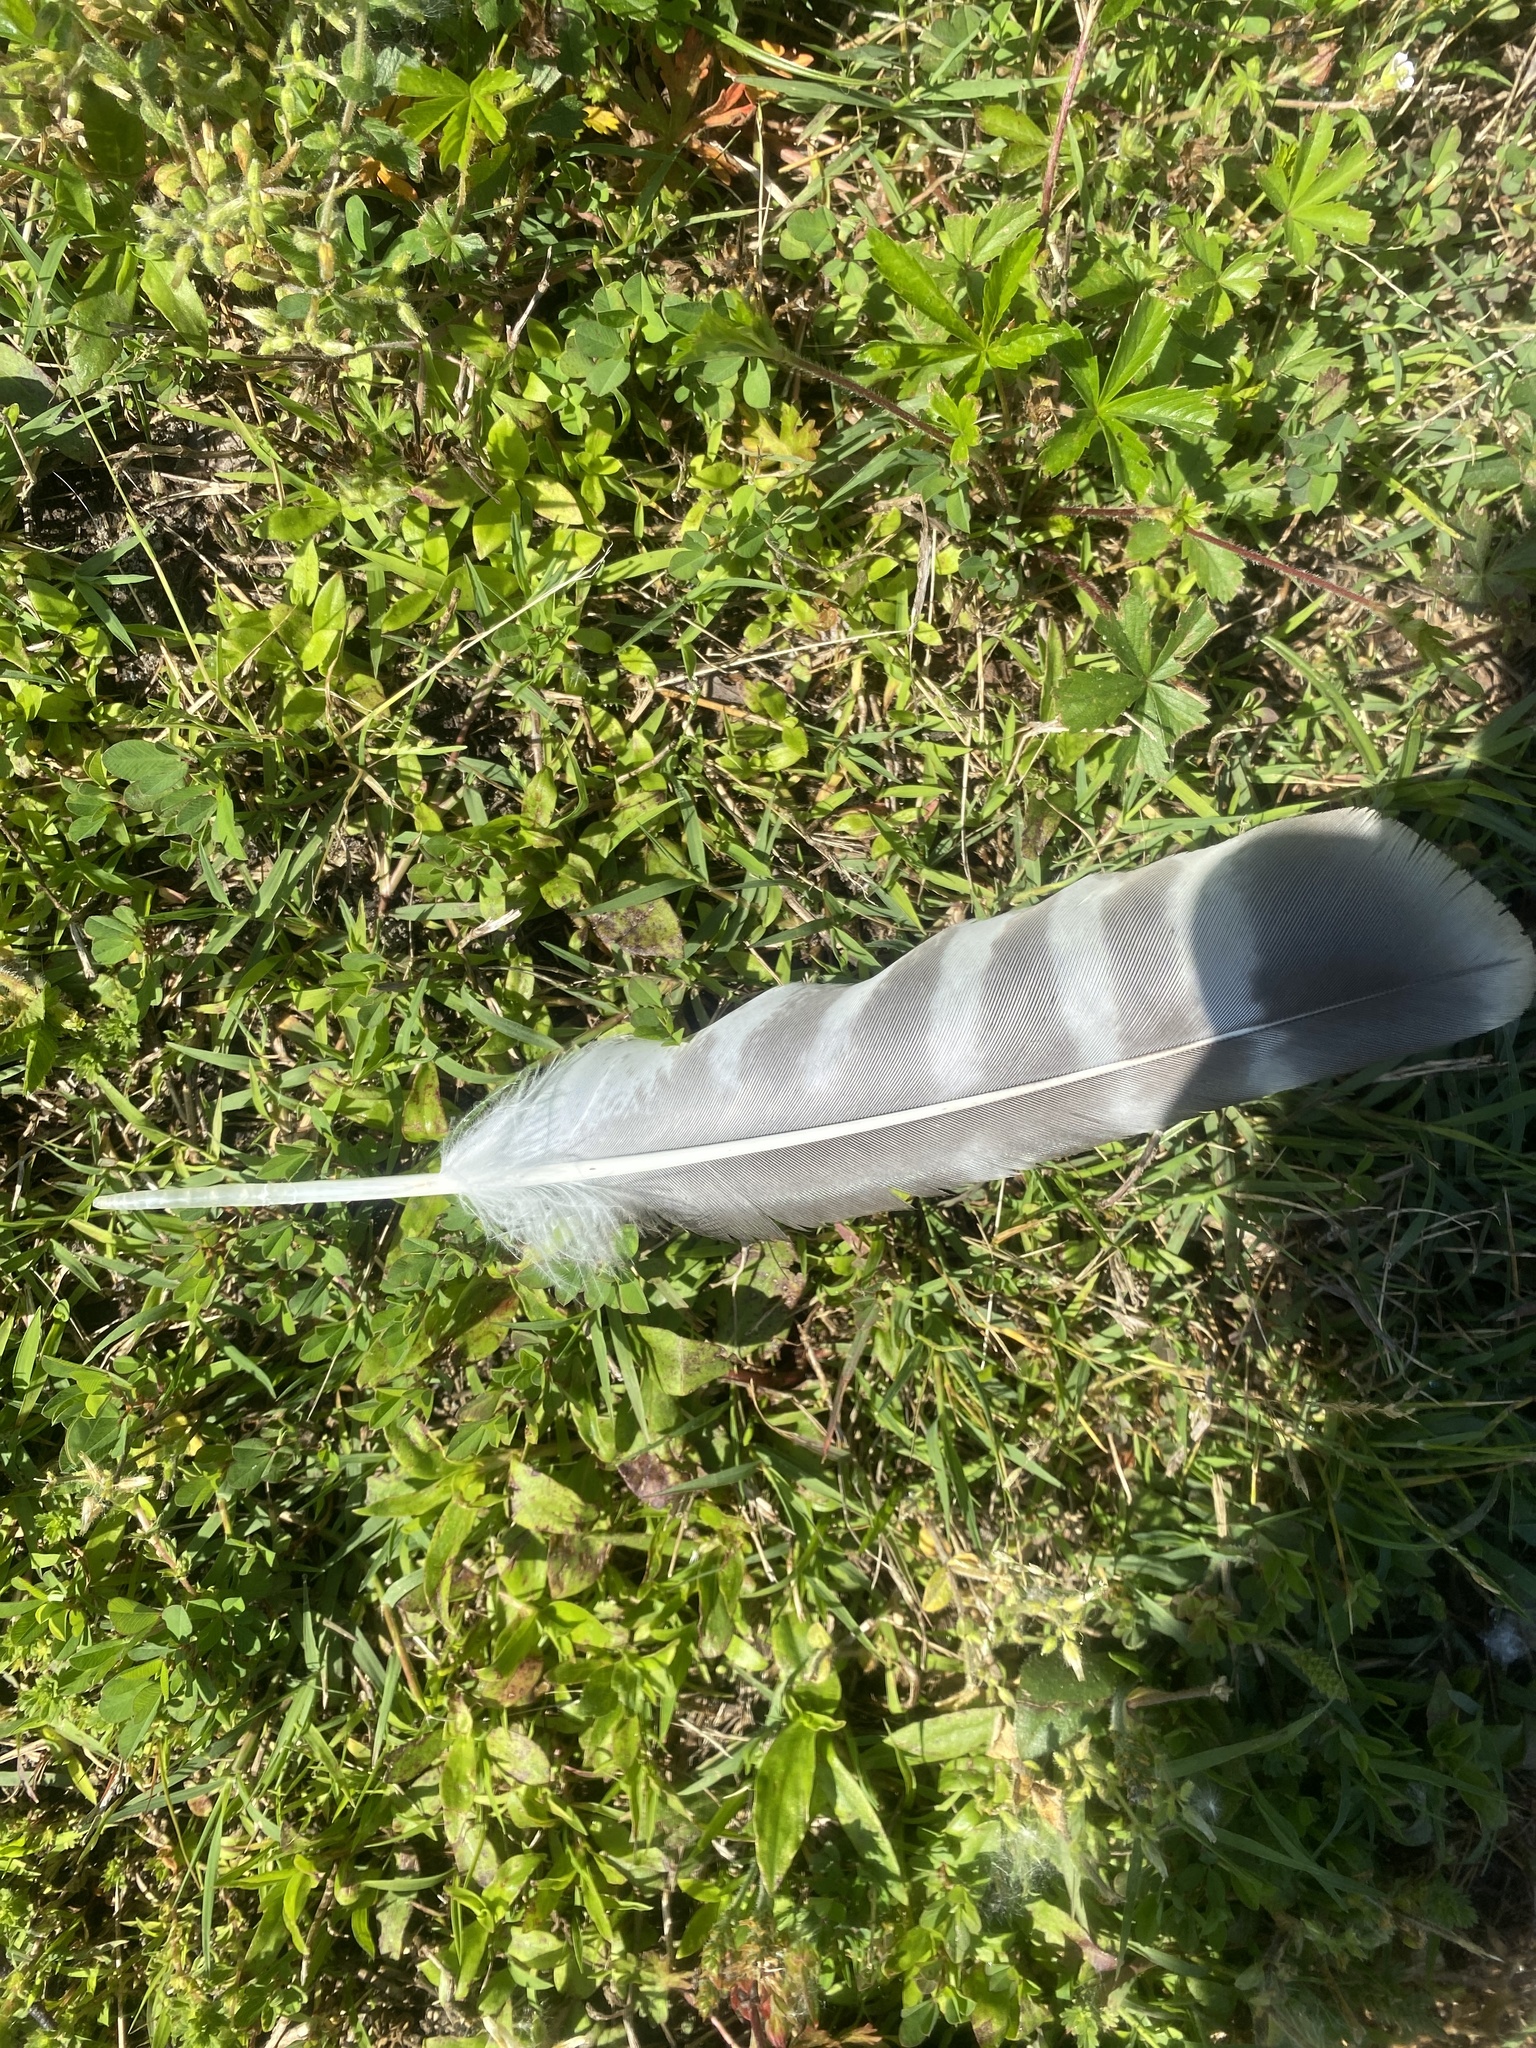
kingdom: Animalia
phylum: Chordata
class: Aves
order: Accipitriformes
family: Accipitridae
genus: Buteo
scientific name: Buteo lineatus
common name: Red-shouldered hawk
